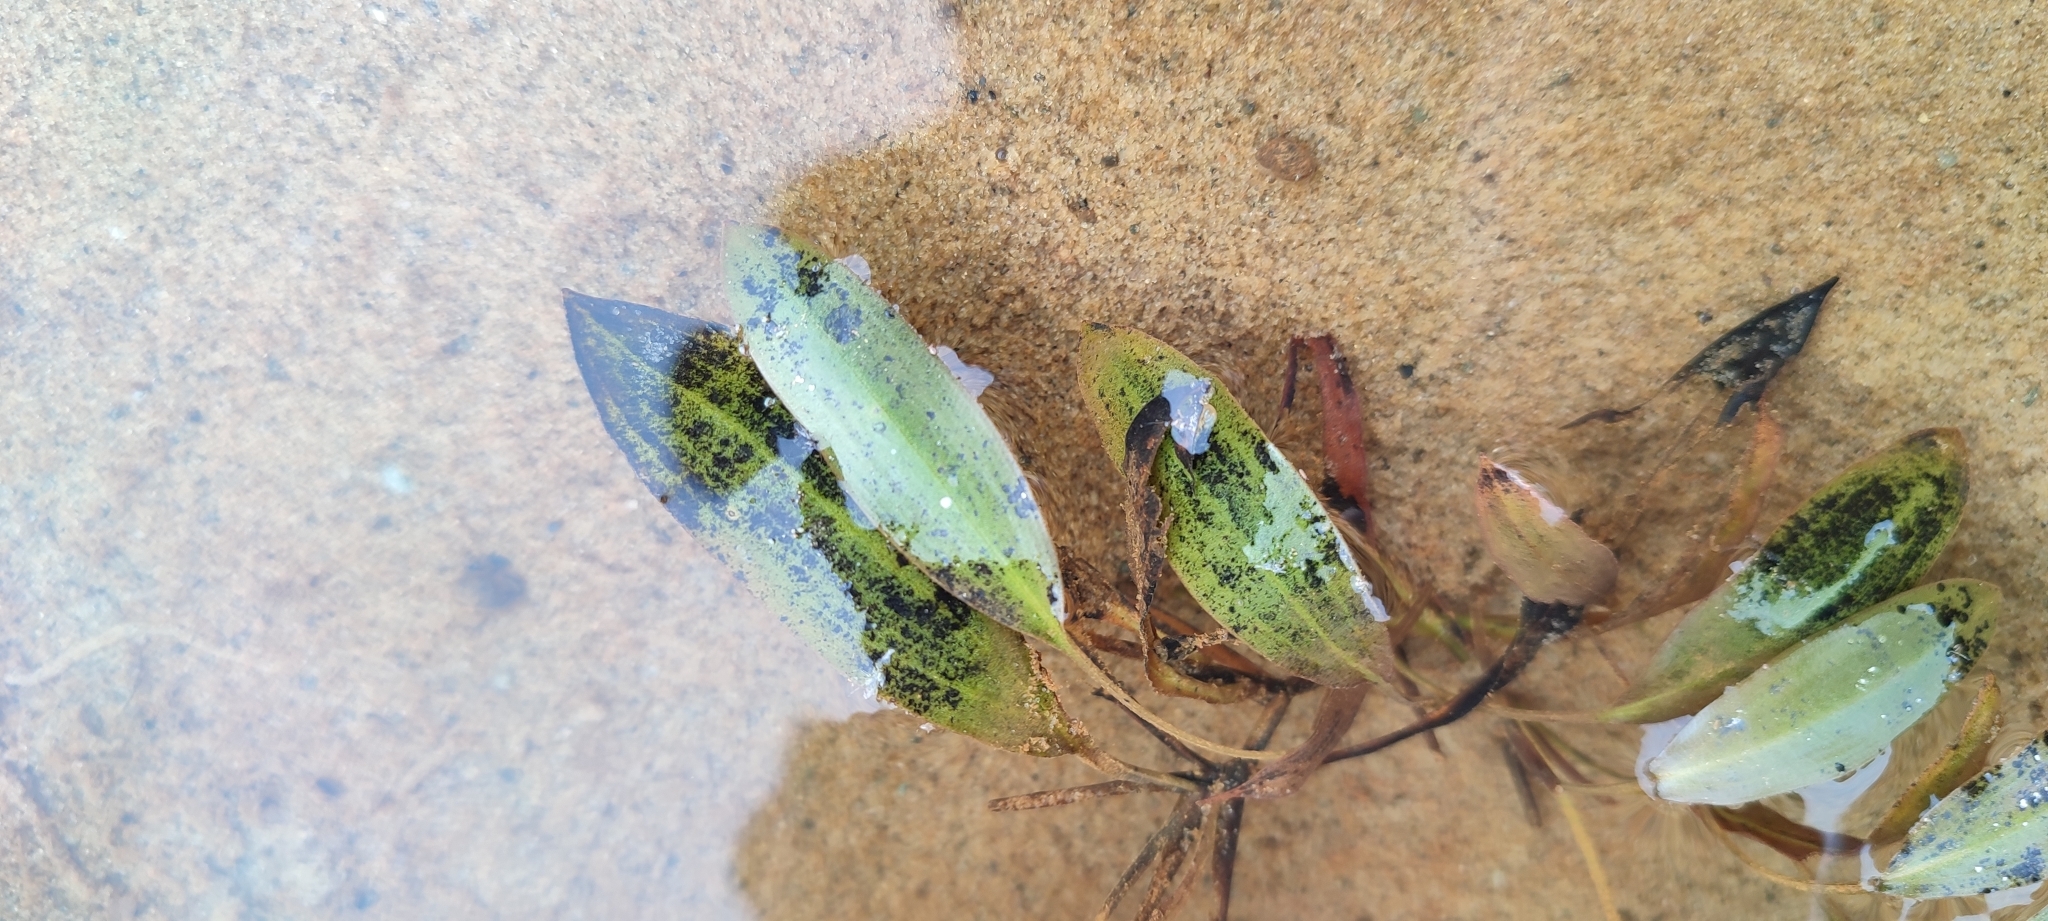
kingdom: Plantae
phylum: Tracheophyta
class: Liliopsida
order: Alismatales
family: Potamogetonaceae
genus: Potamogeton
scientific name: Potamogeton gramineus
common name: Various-leaved pondweed
